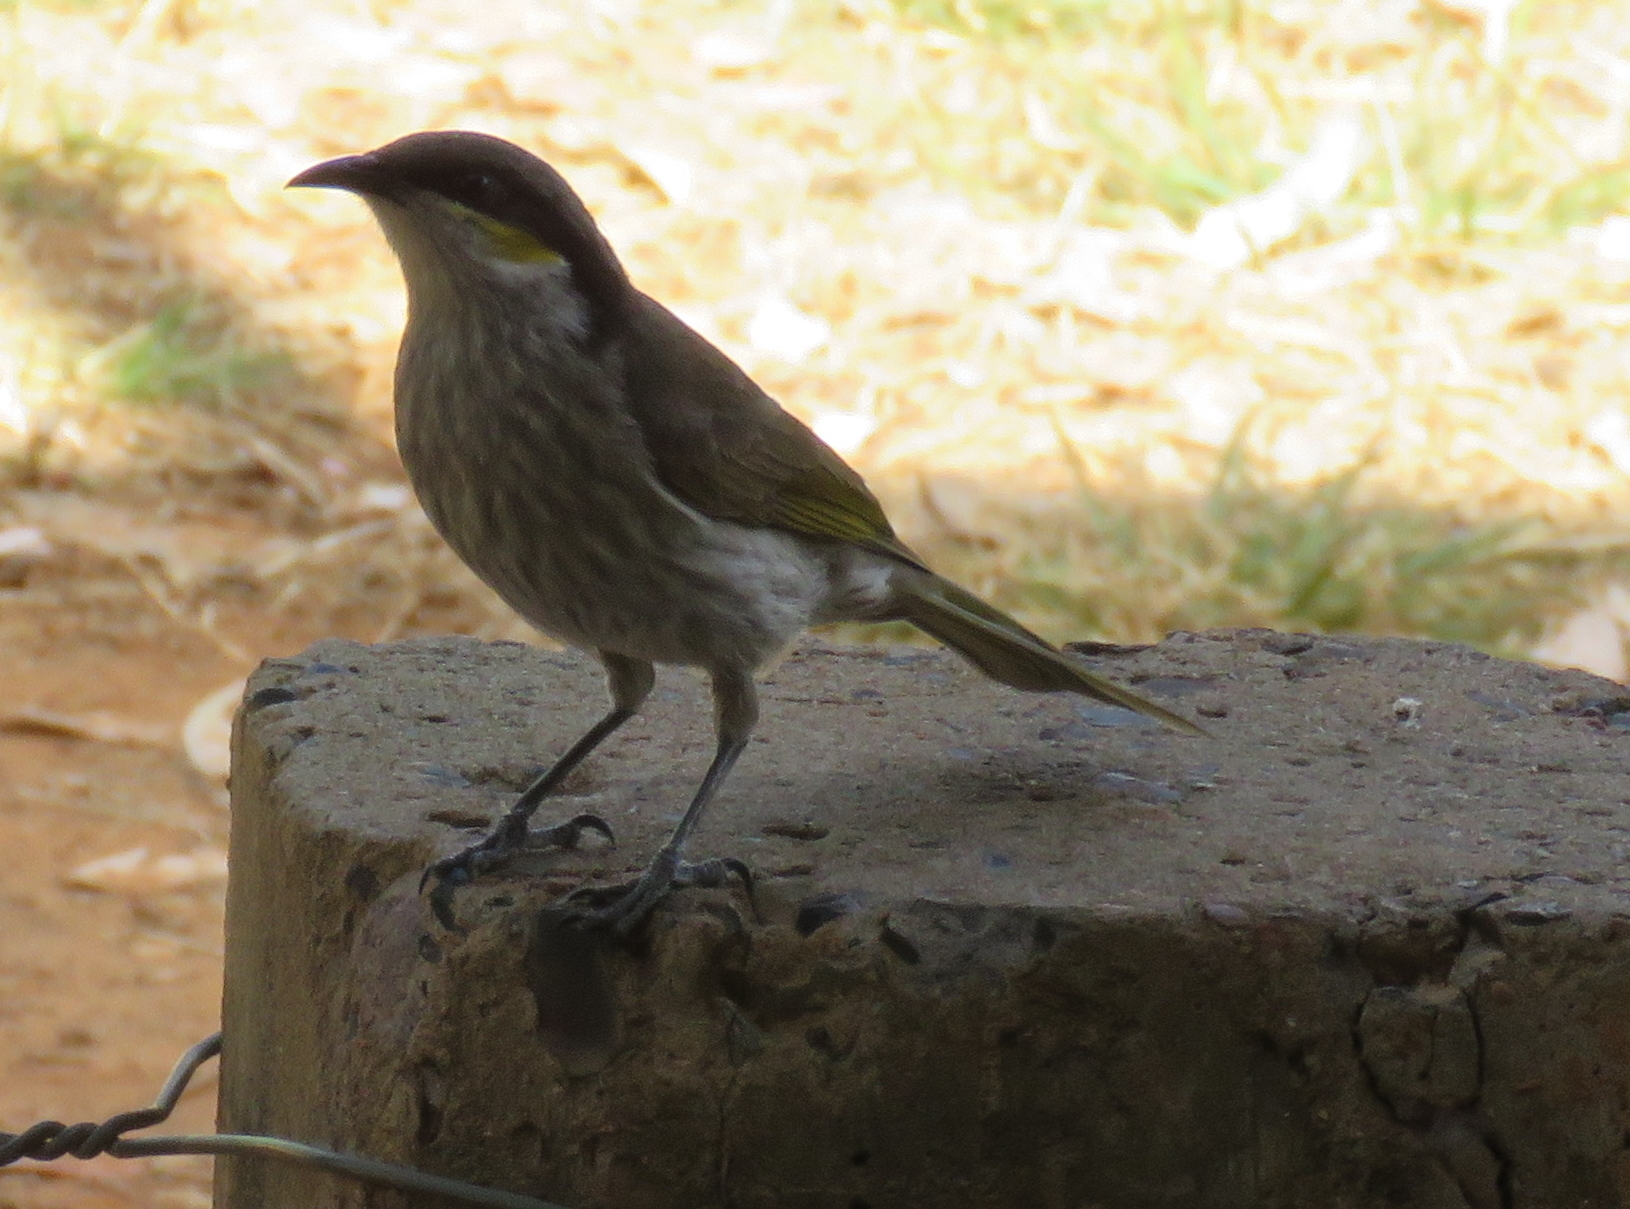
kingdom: Animalia
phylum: Chordata
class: Aves
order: Passeriformes
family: Meliphagidae
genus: Gavicalis
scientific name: Gavicalis virescens
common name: Singing honeyeater
